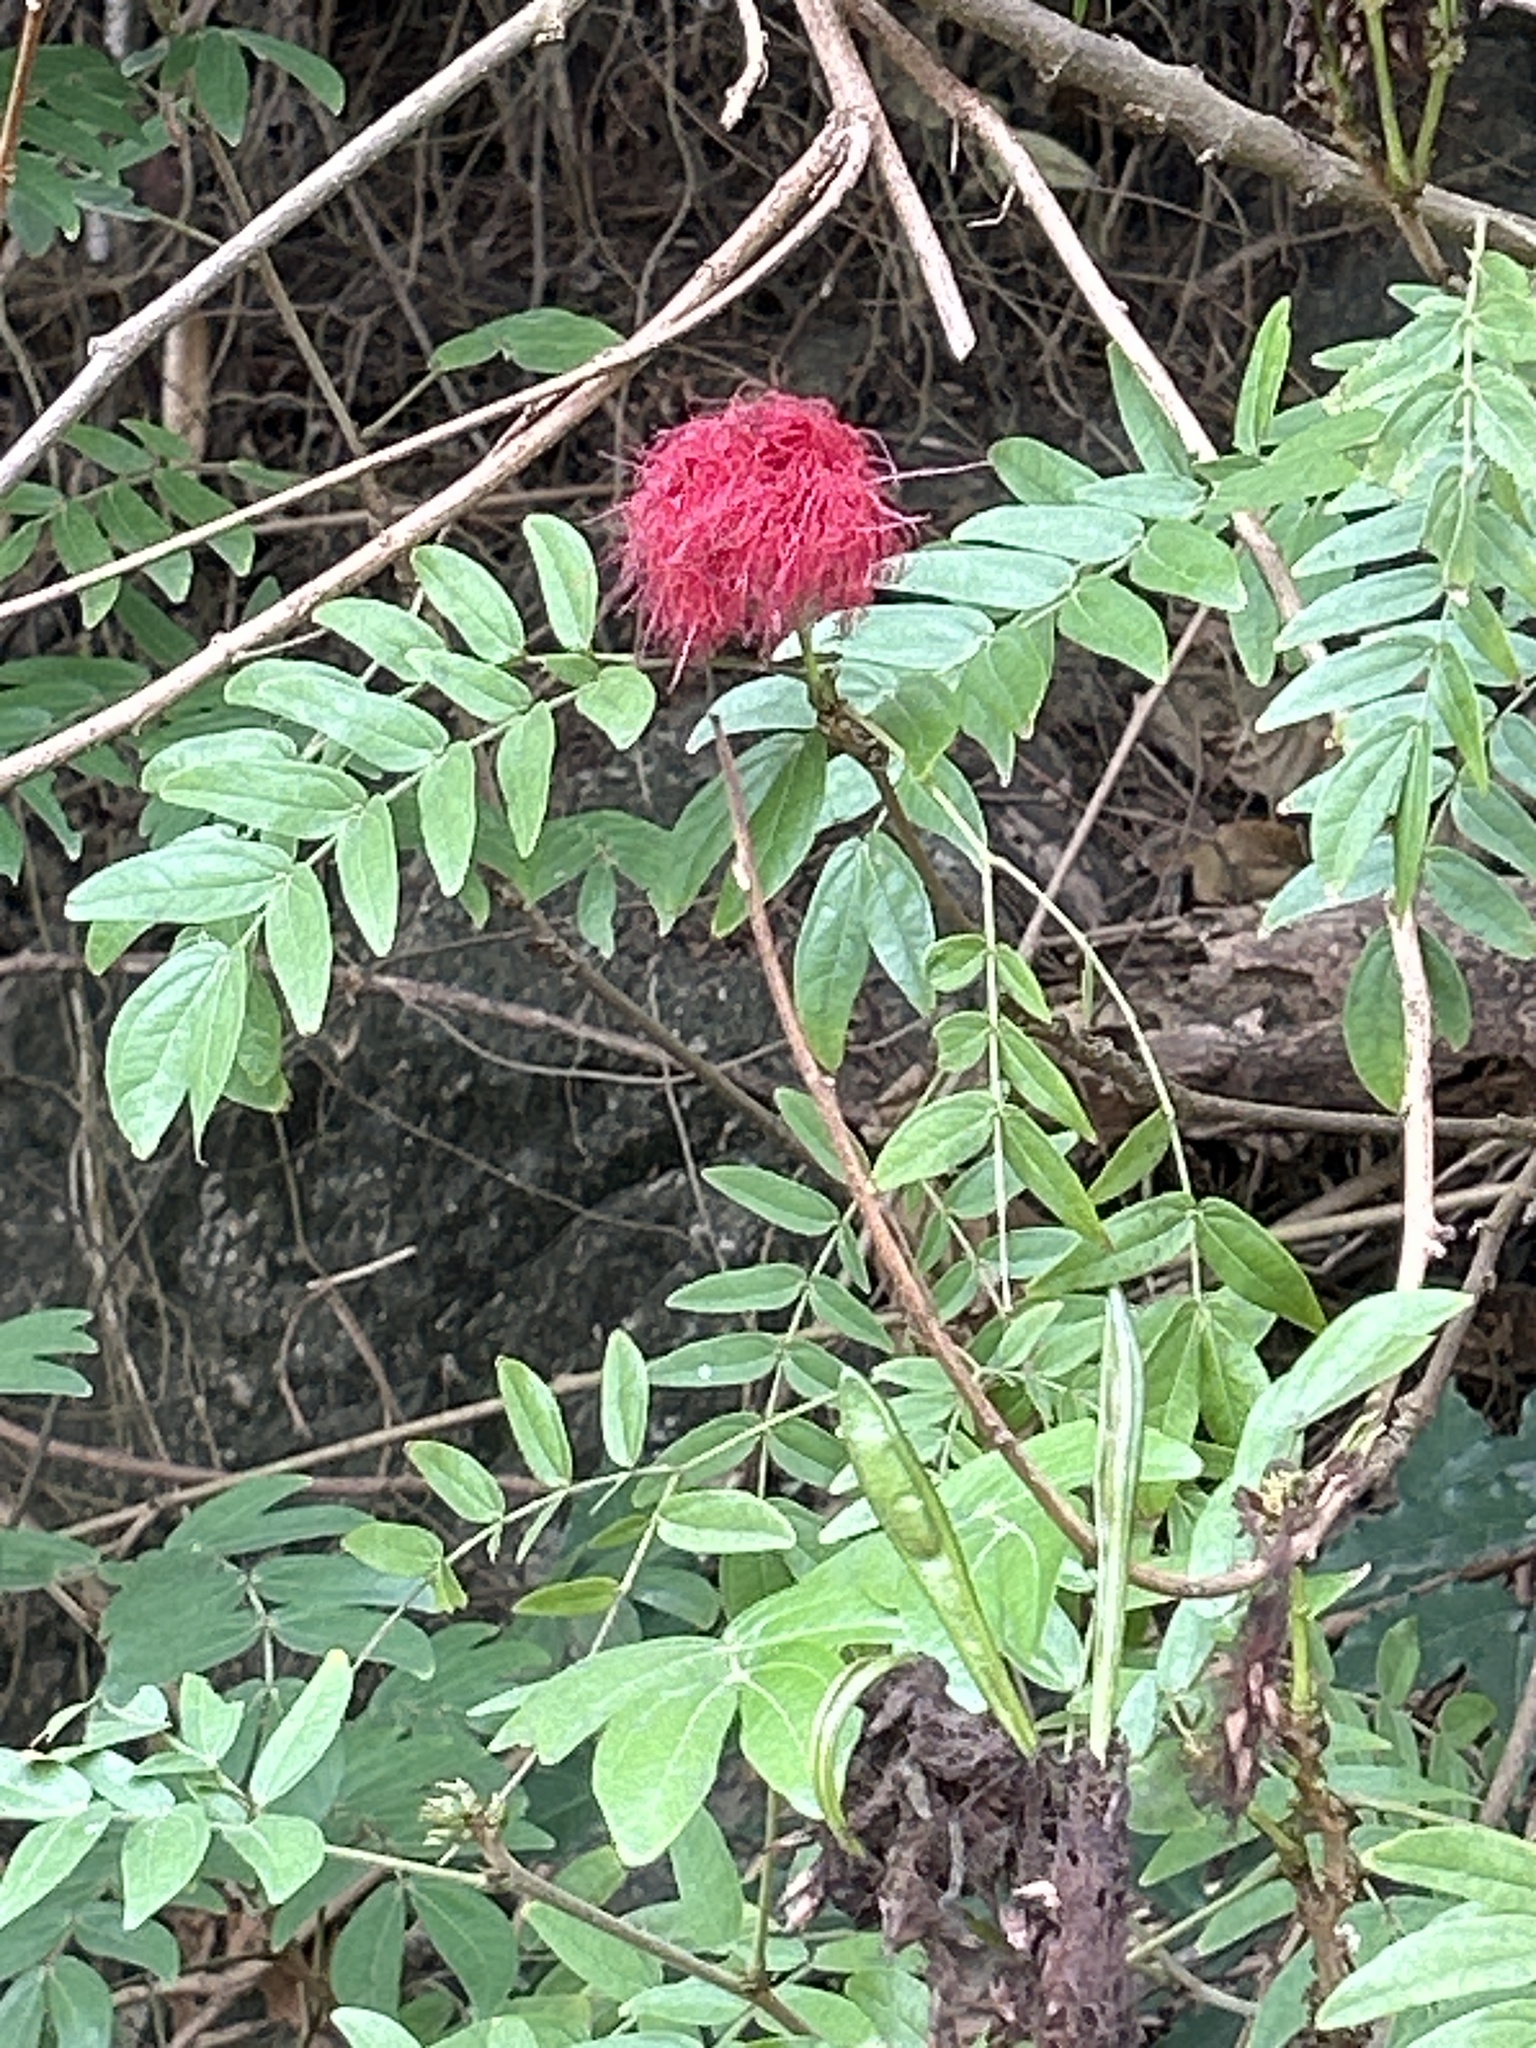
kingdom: Plantae
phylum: Tracheophyta
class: Magnoliopsida
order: Fabales
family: Fabaceae
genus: Calliandra
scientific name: Calliandra haematocephala
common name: Blood red tassel flower
